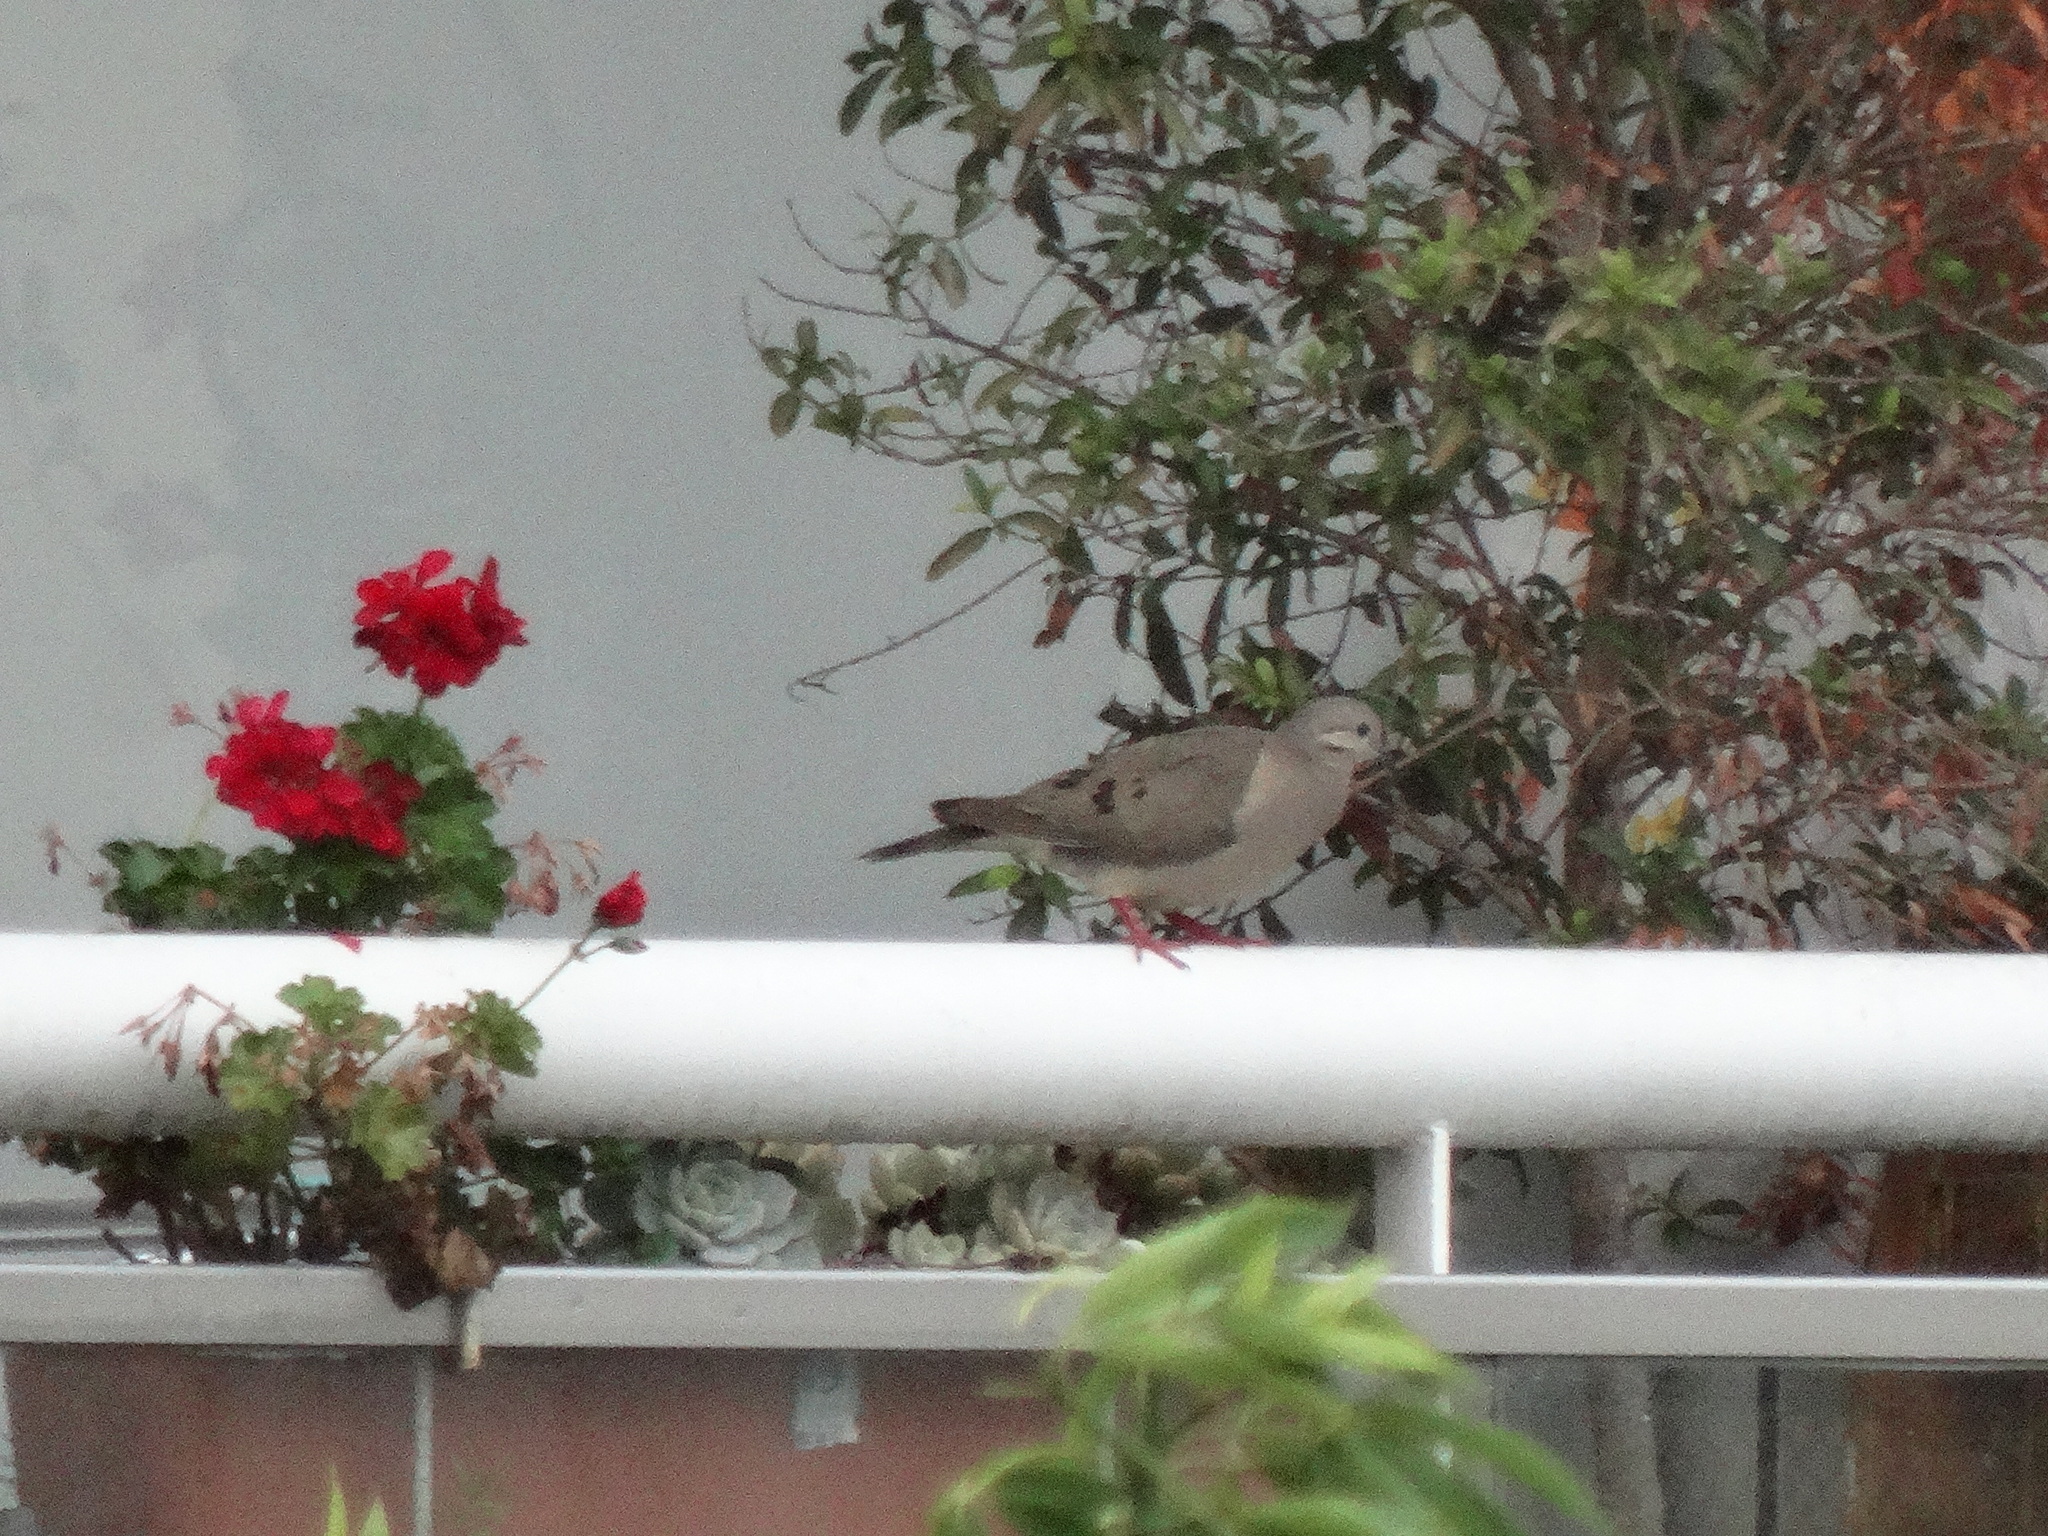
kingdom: Animalia
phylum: Chordata
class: Aves
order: Columbiformes
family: Columbidae
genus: Zenaida
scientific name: Zenaida auriculata
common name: Eared dove
